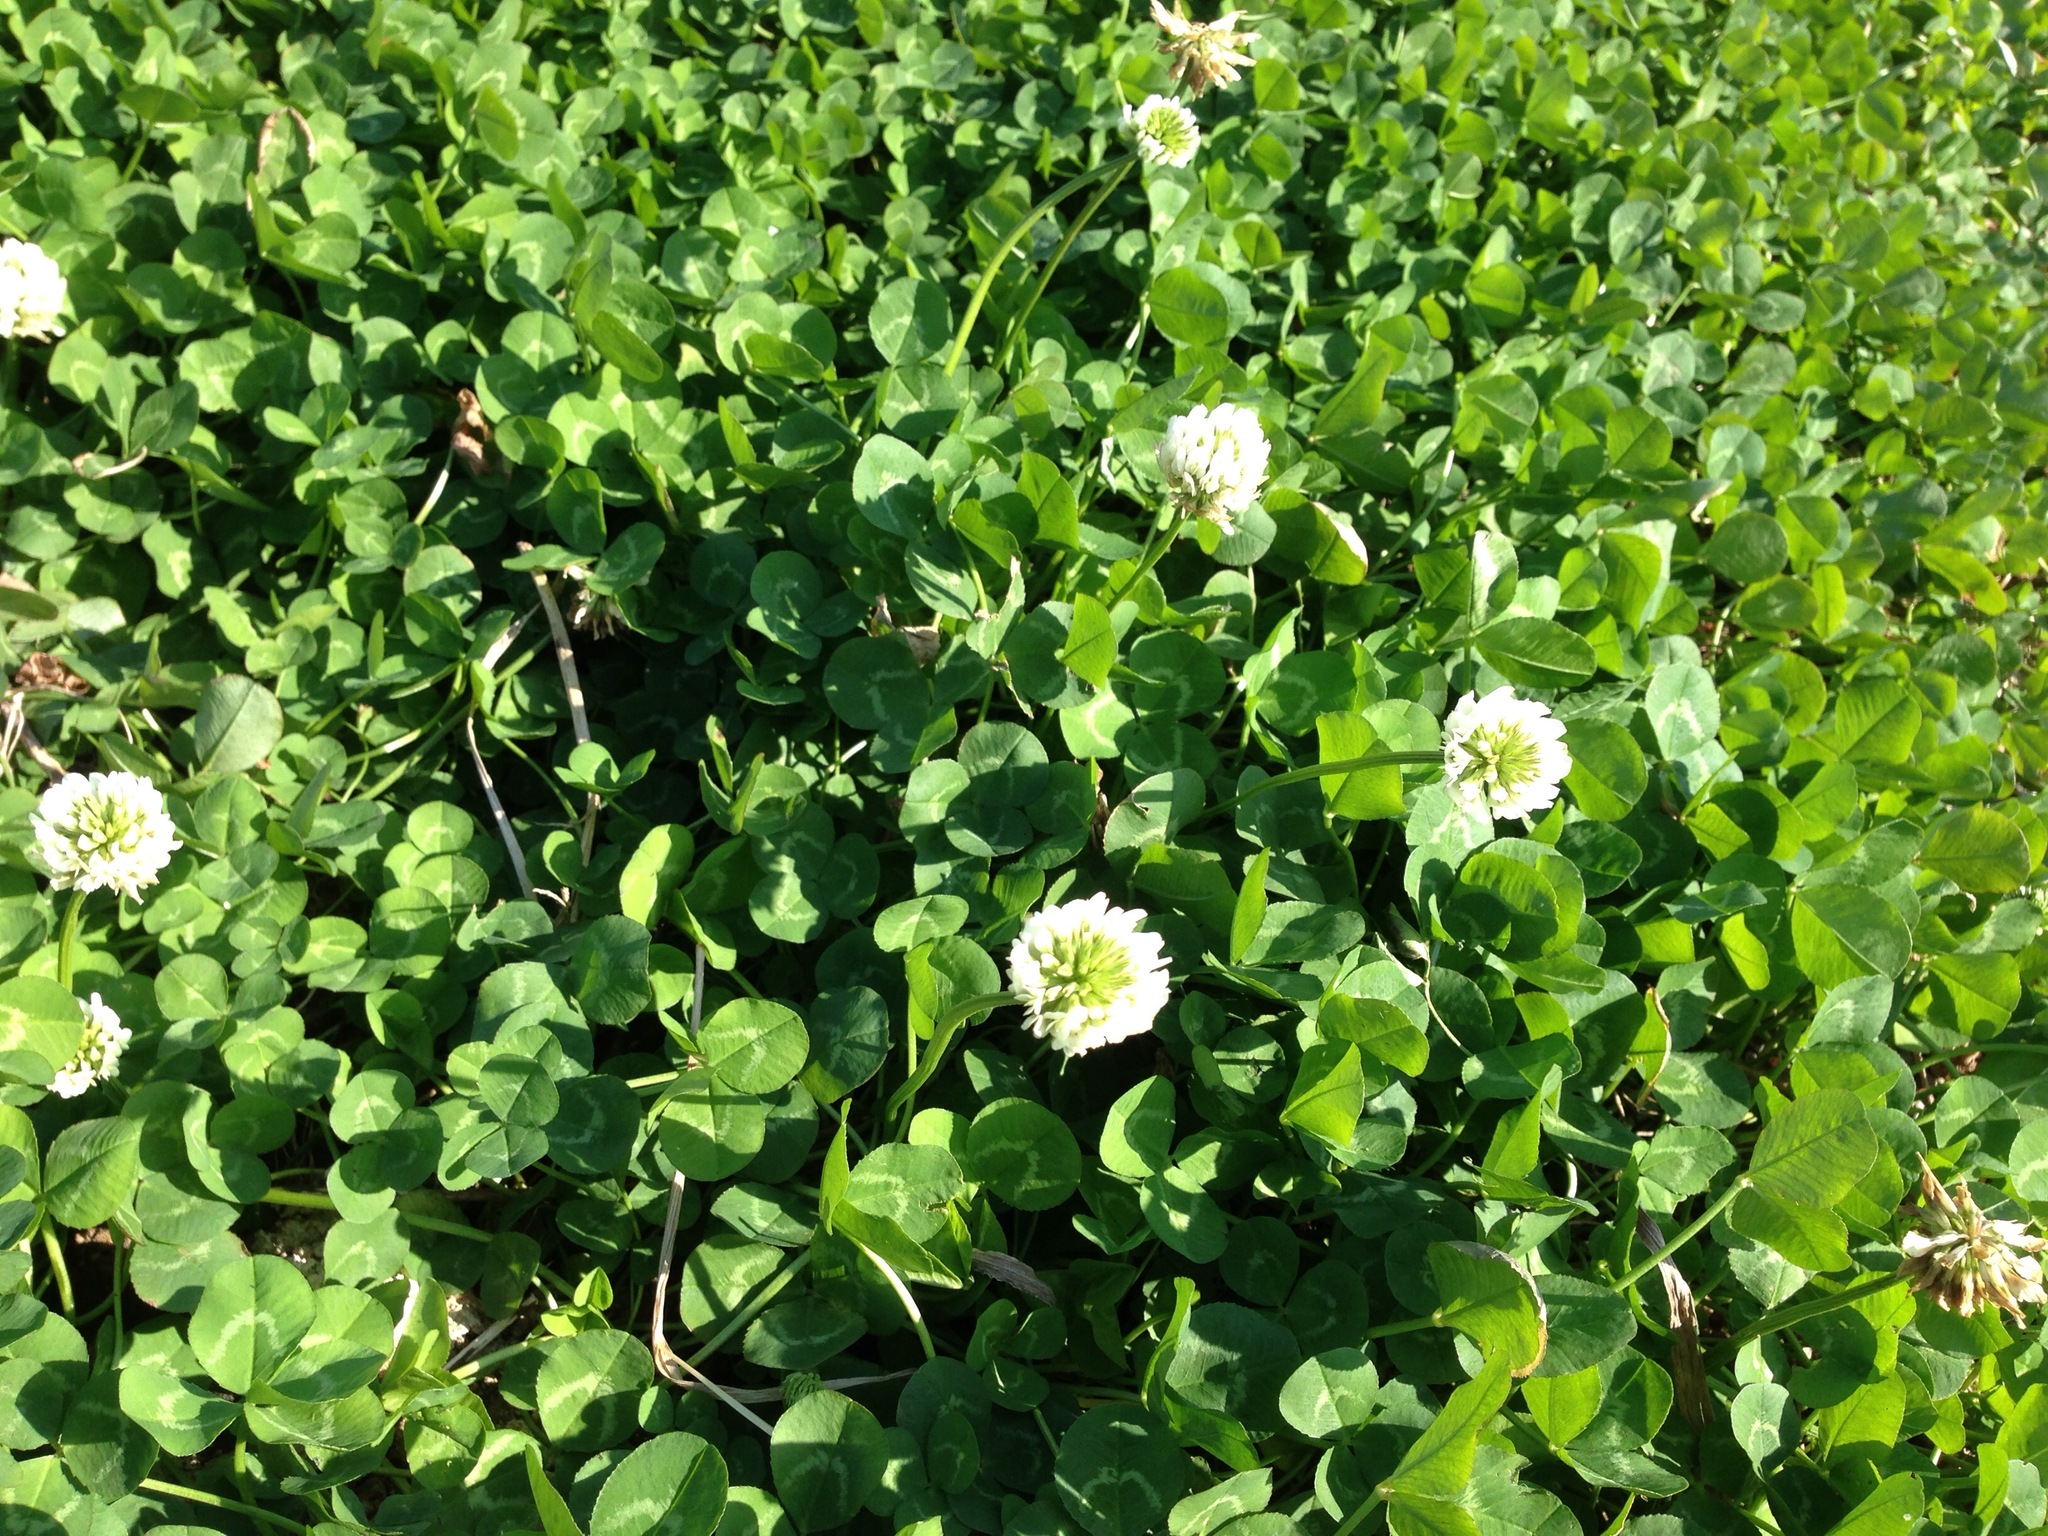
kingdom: Plantae
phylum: Tracheophyta
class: Magnoliopsida
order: Fabales
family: Fabaceae
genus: Trifolium
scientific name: Trifolium repens
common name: White clover
